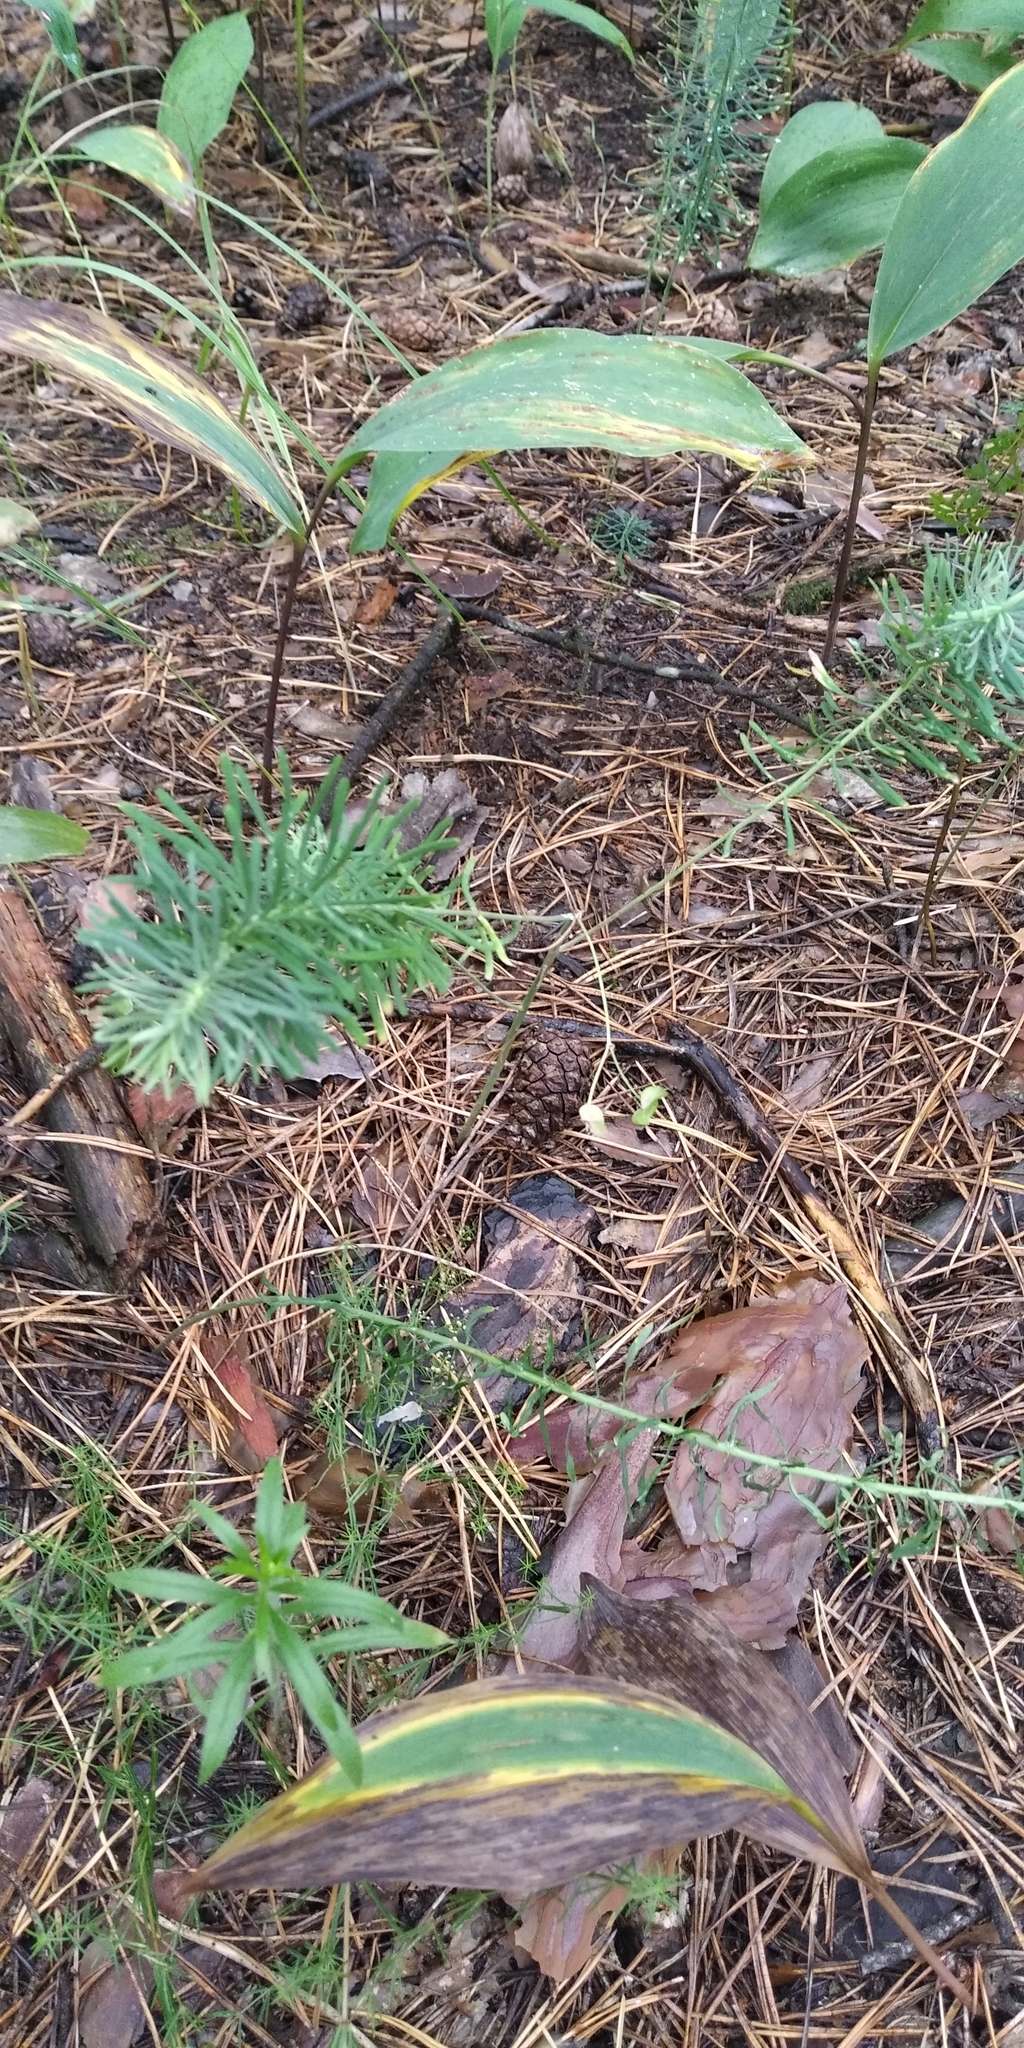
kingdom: Plantae
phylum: Tracheophyta
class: Liliopsida
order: Asparagales
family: Asparagaceae
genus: Convallaria
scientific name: Convallaria majalis
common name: Lily-of-the-valley
